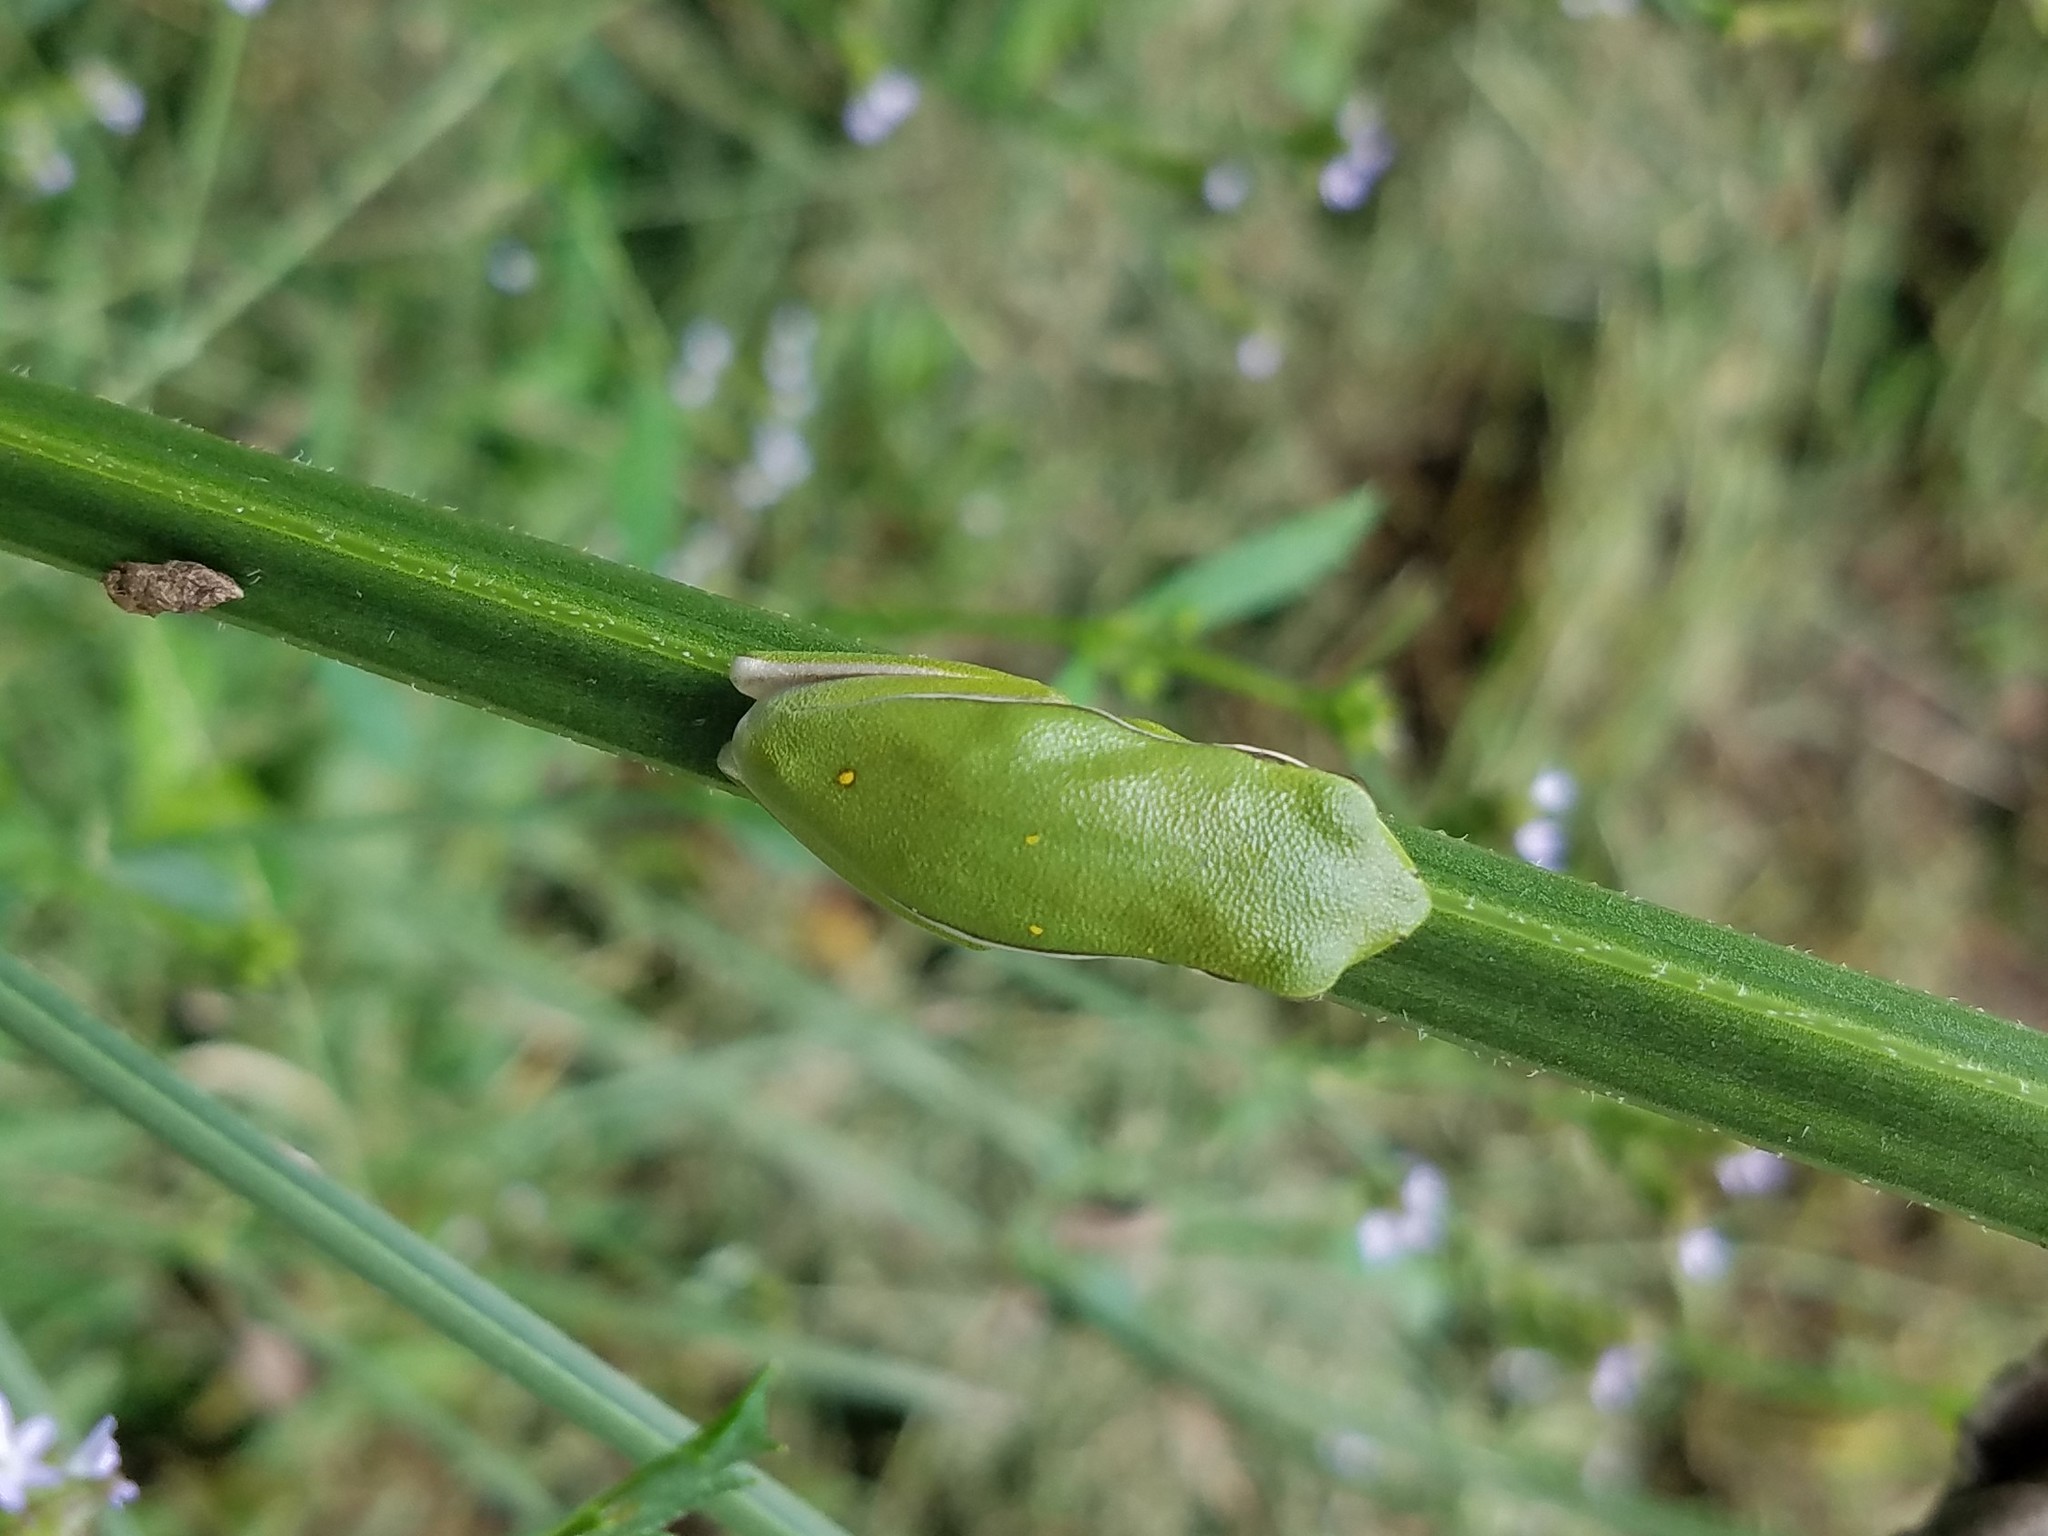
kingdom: Animalia
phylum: Chordata
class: Amphibia
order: Anura
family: Hylidae
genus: Dryophytes
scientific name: Dryophytes cinereus
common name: Green treefrog
